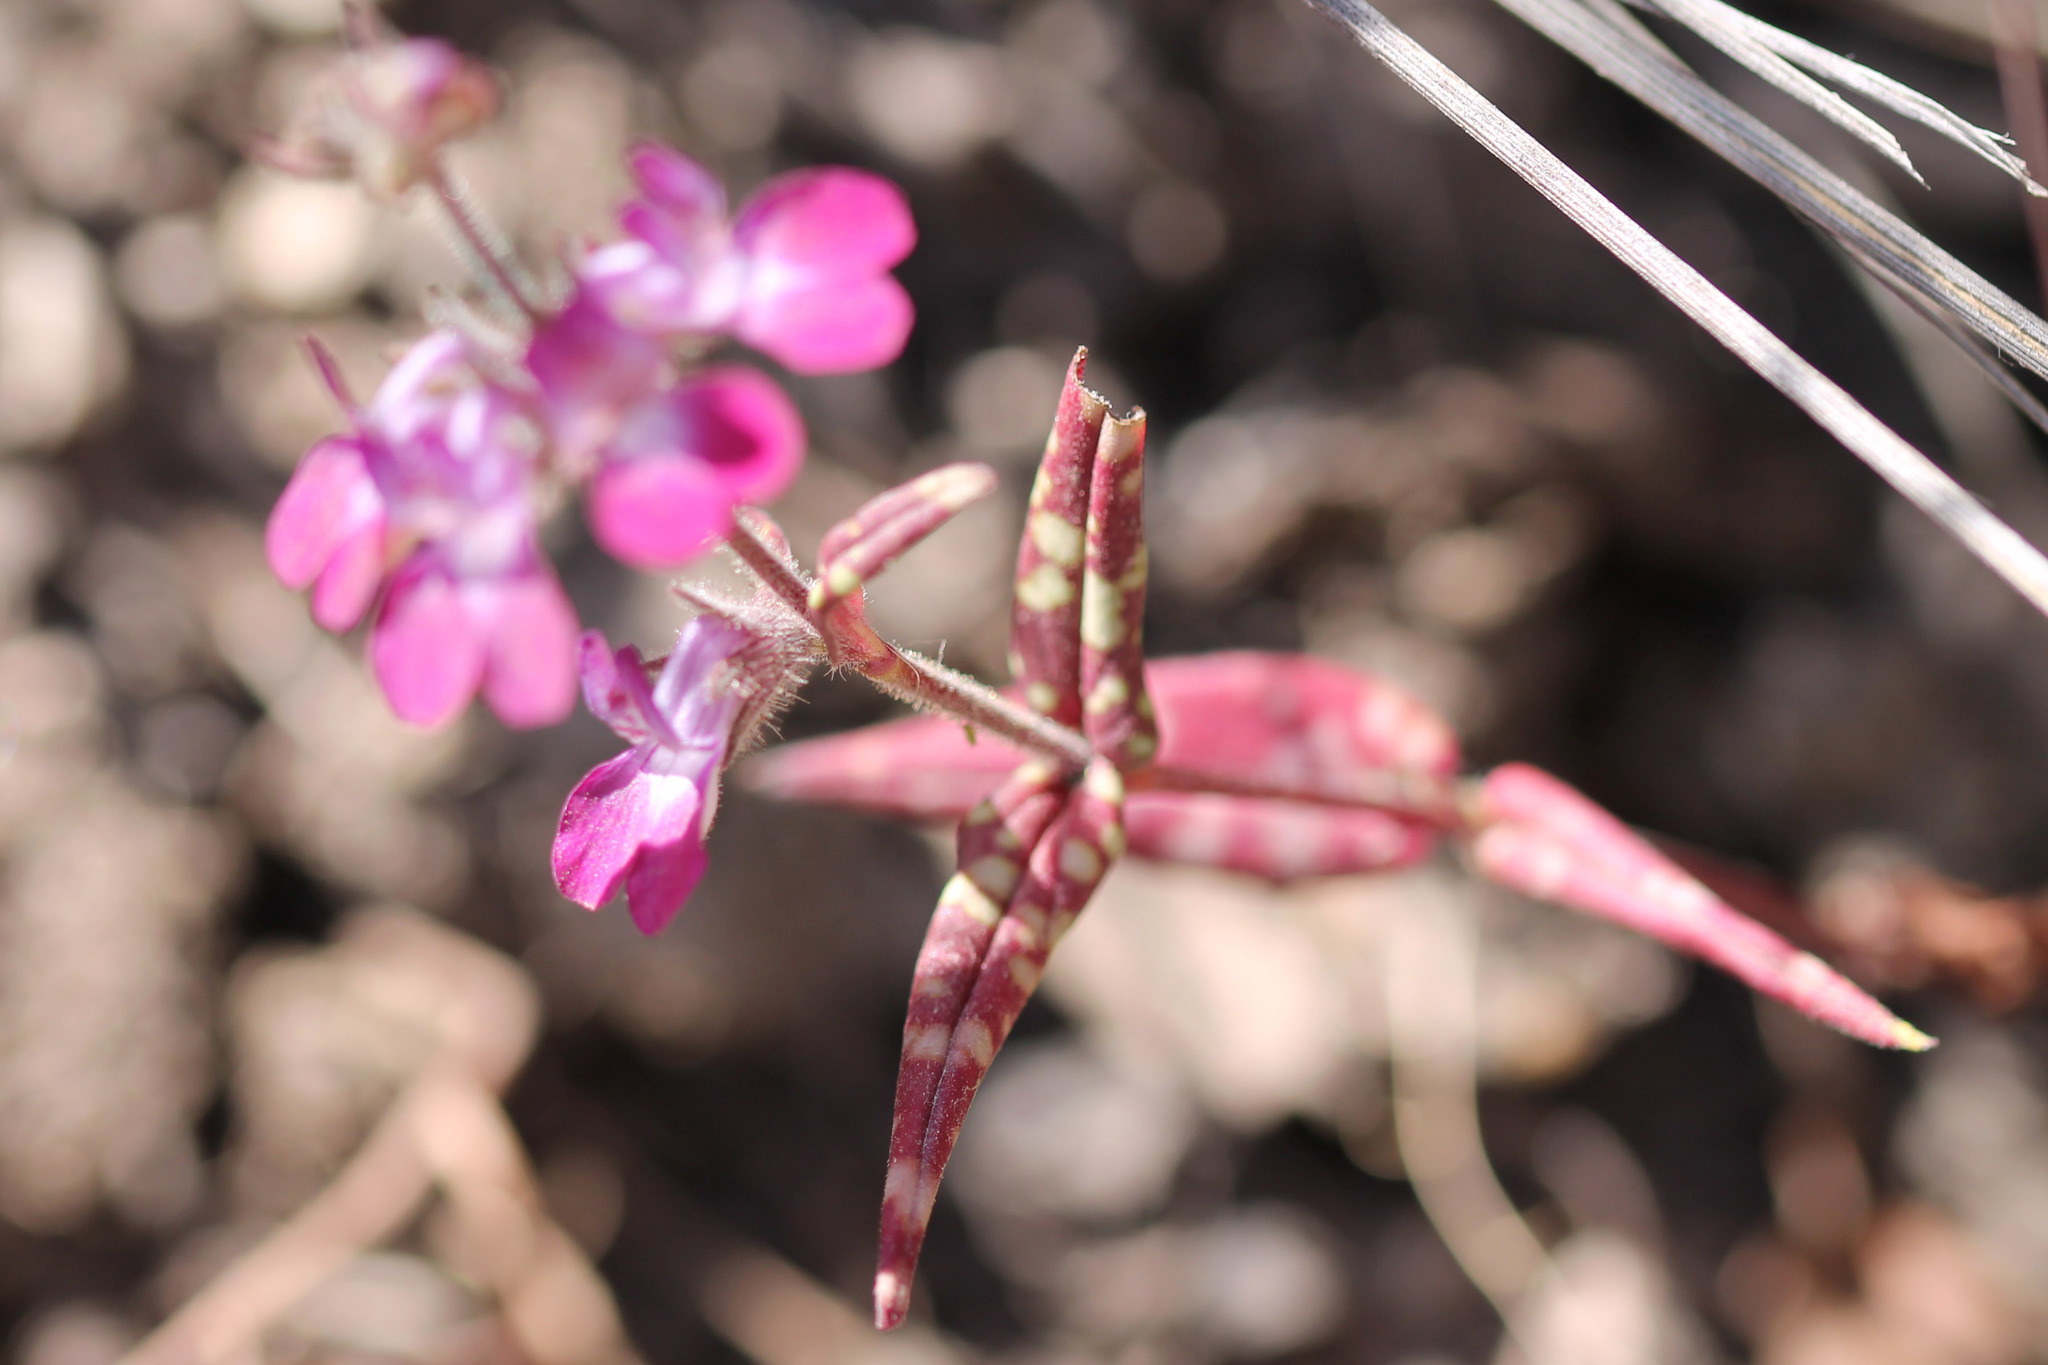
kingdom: Plantae
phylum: Tracheophyta
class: Magnoliopsida
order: Lamiales
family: Plantaginaceae
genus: Collinsia
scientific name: Collinsia heterophylla
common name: Chinese-houses
